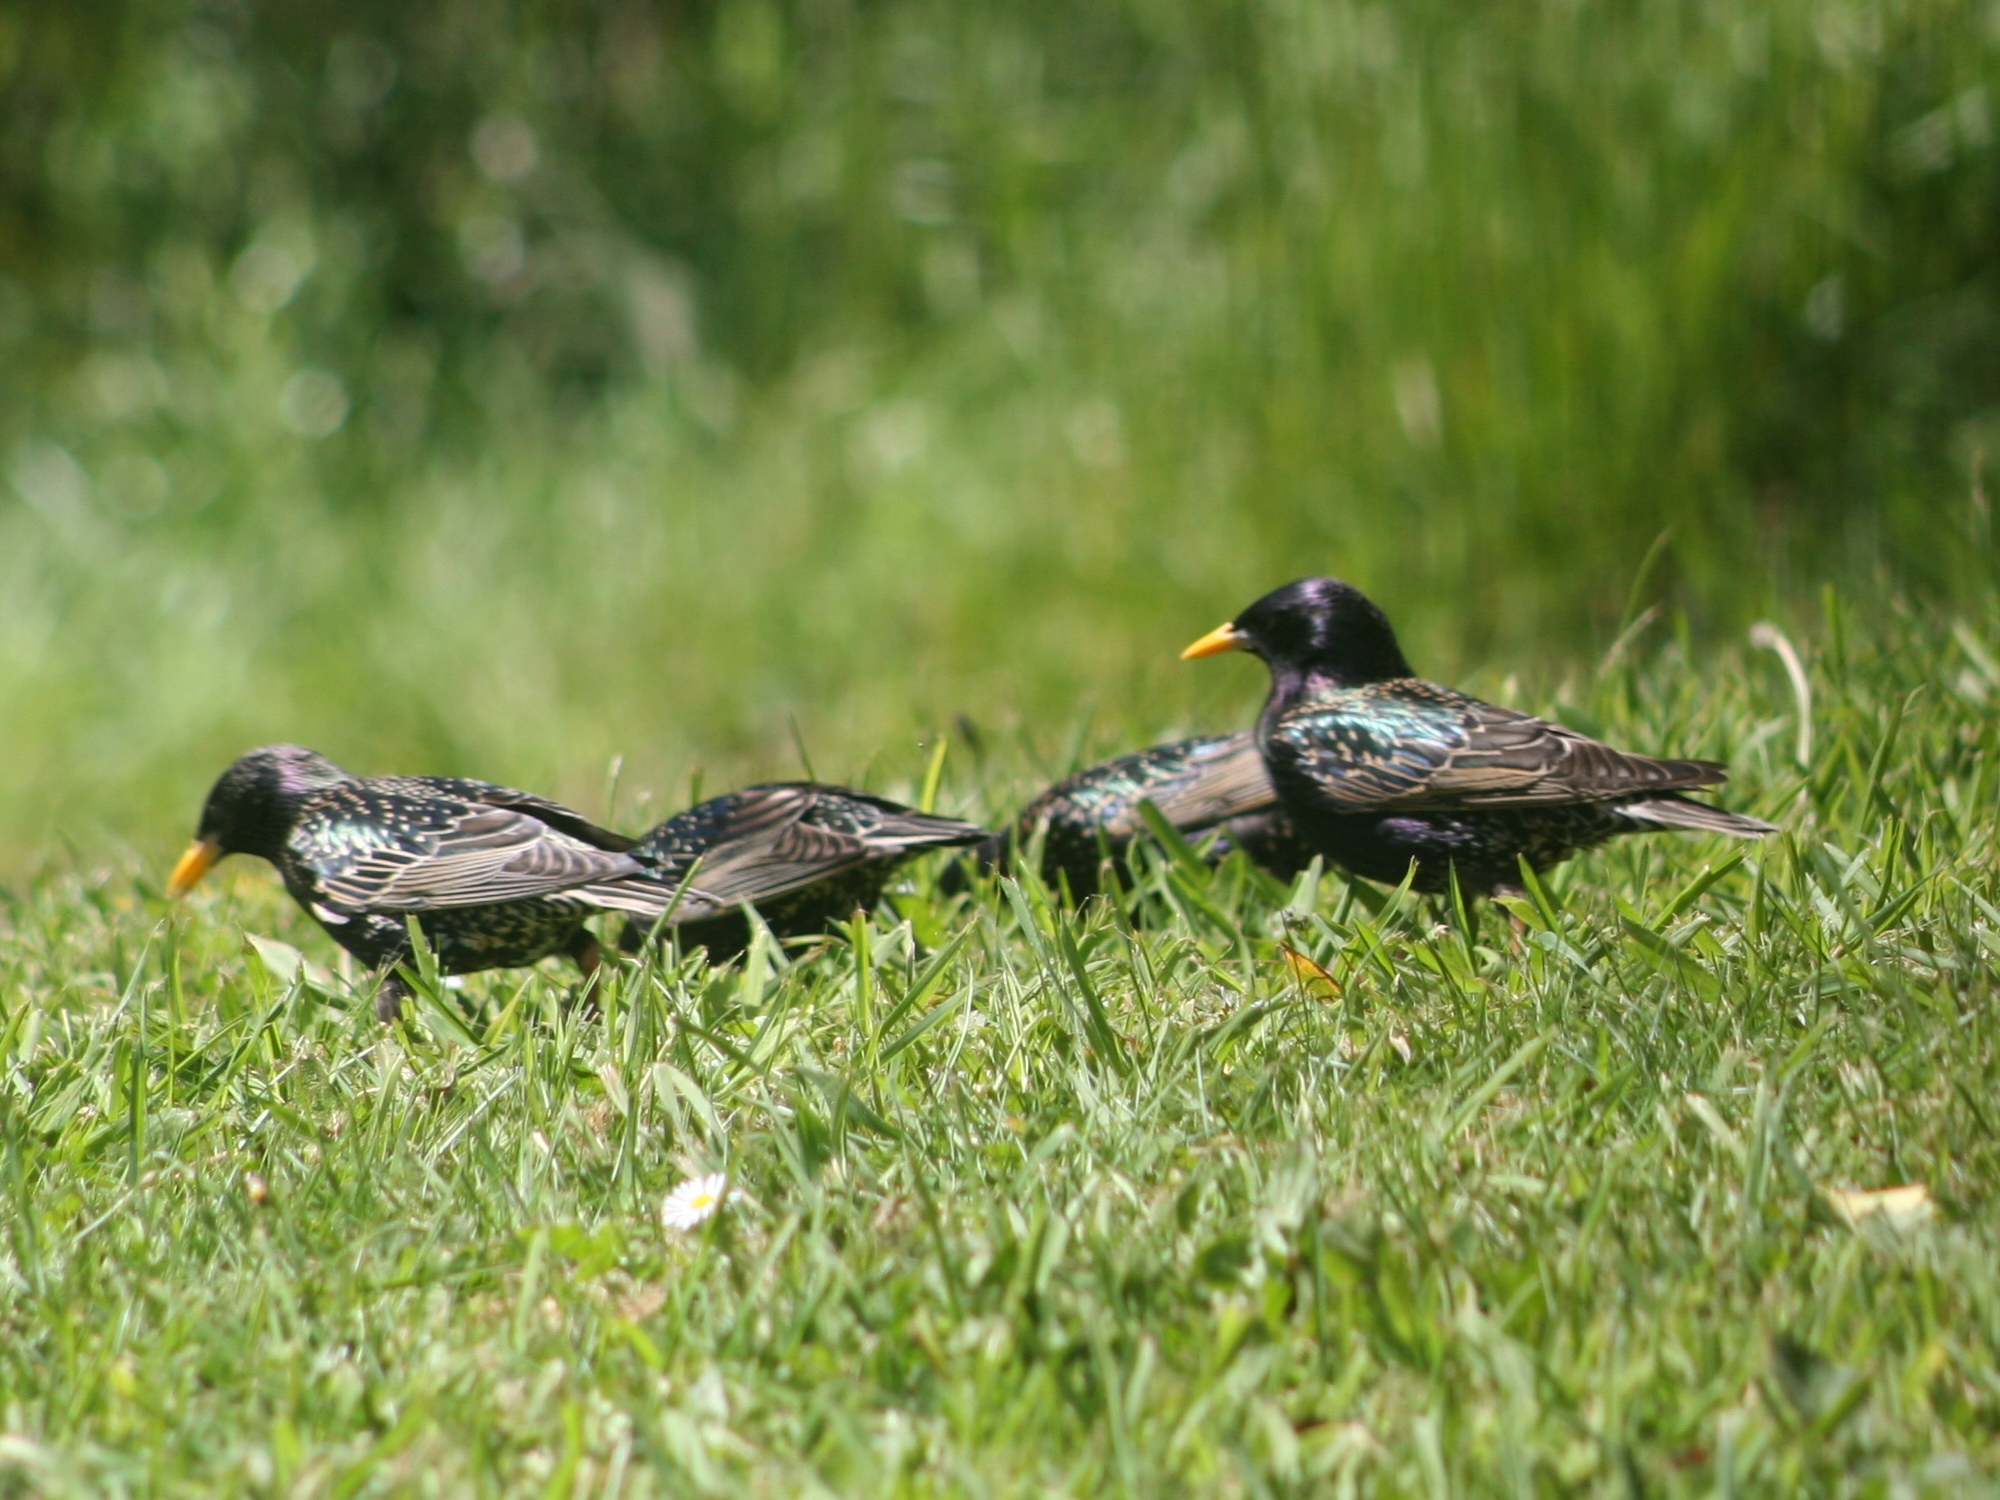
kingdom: Animalia
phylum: Chordata
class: Aves
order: Passeriformes
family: Sturnidae
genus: Sturnus
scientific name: Sturnus vulgaris
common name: Common starling
